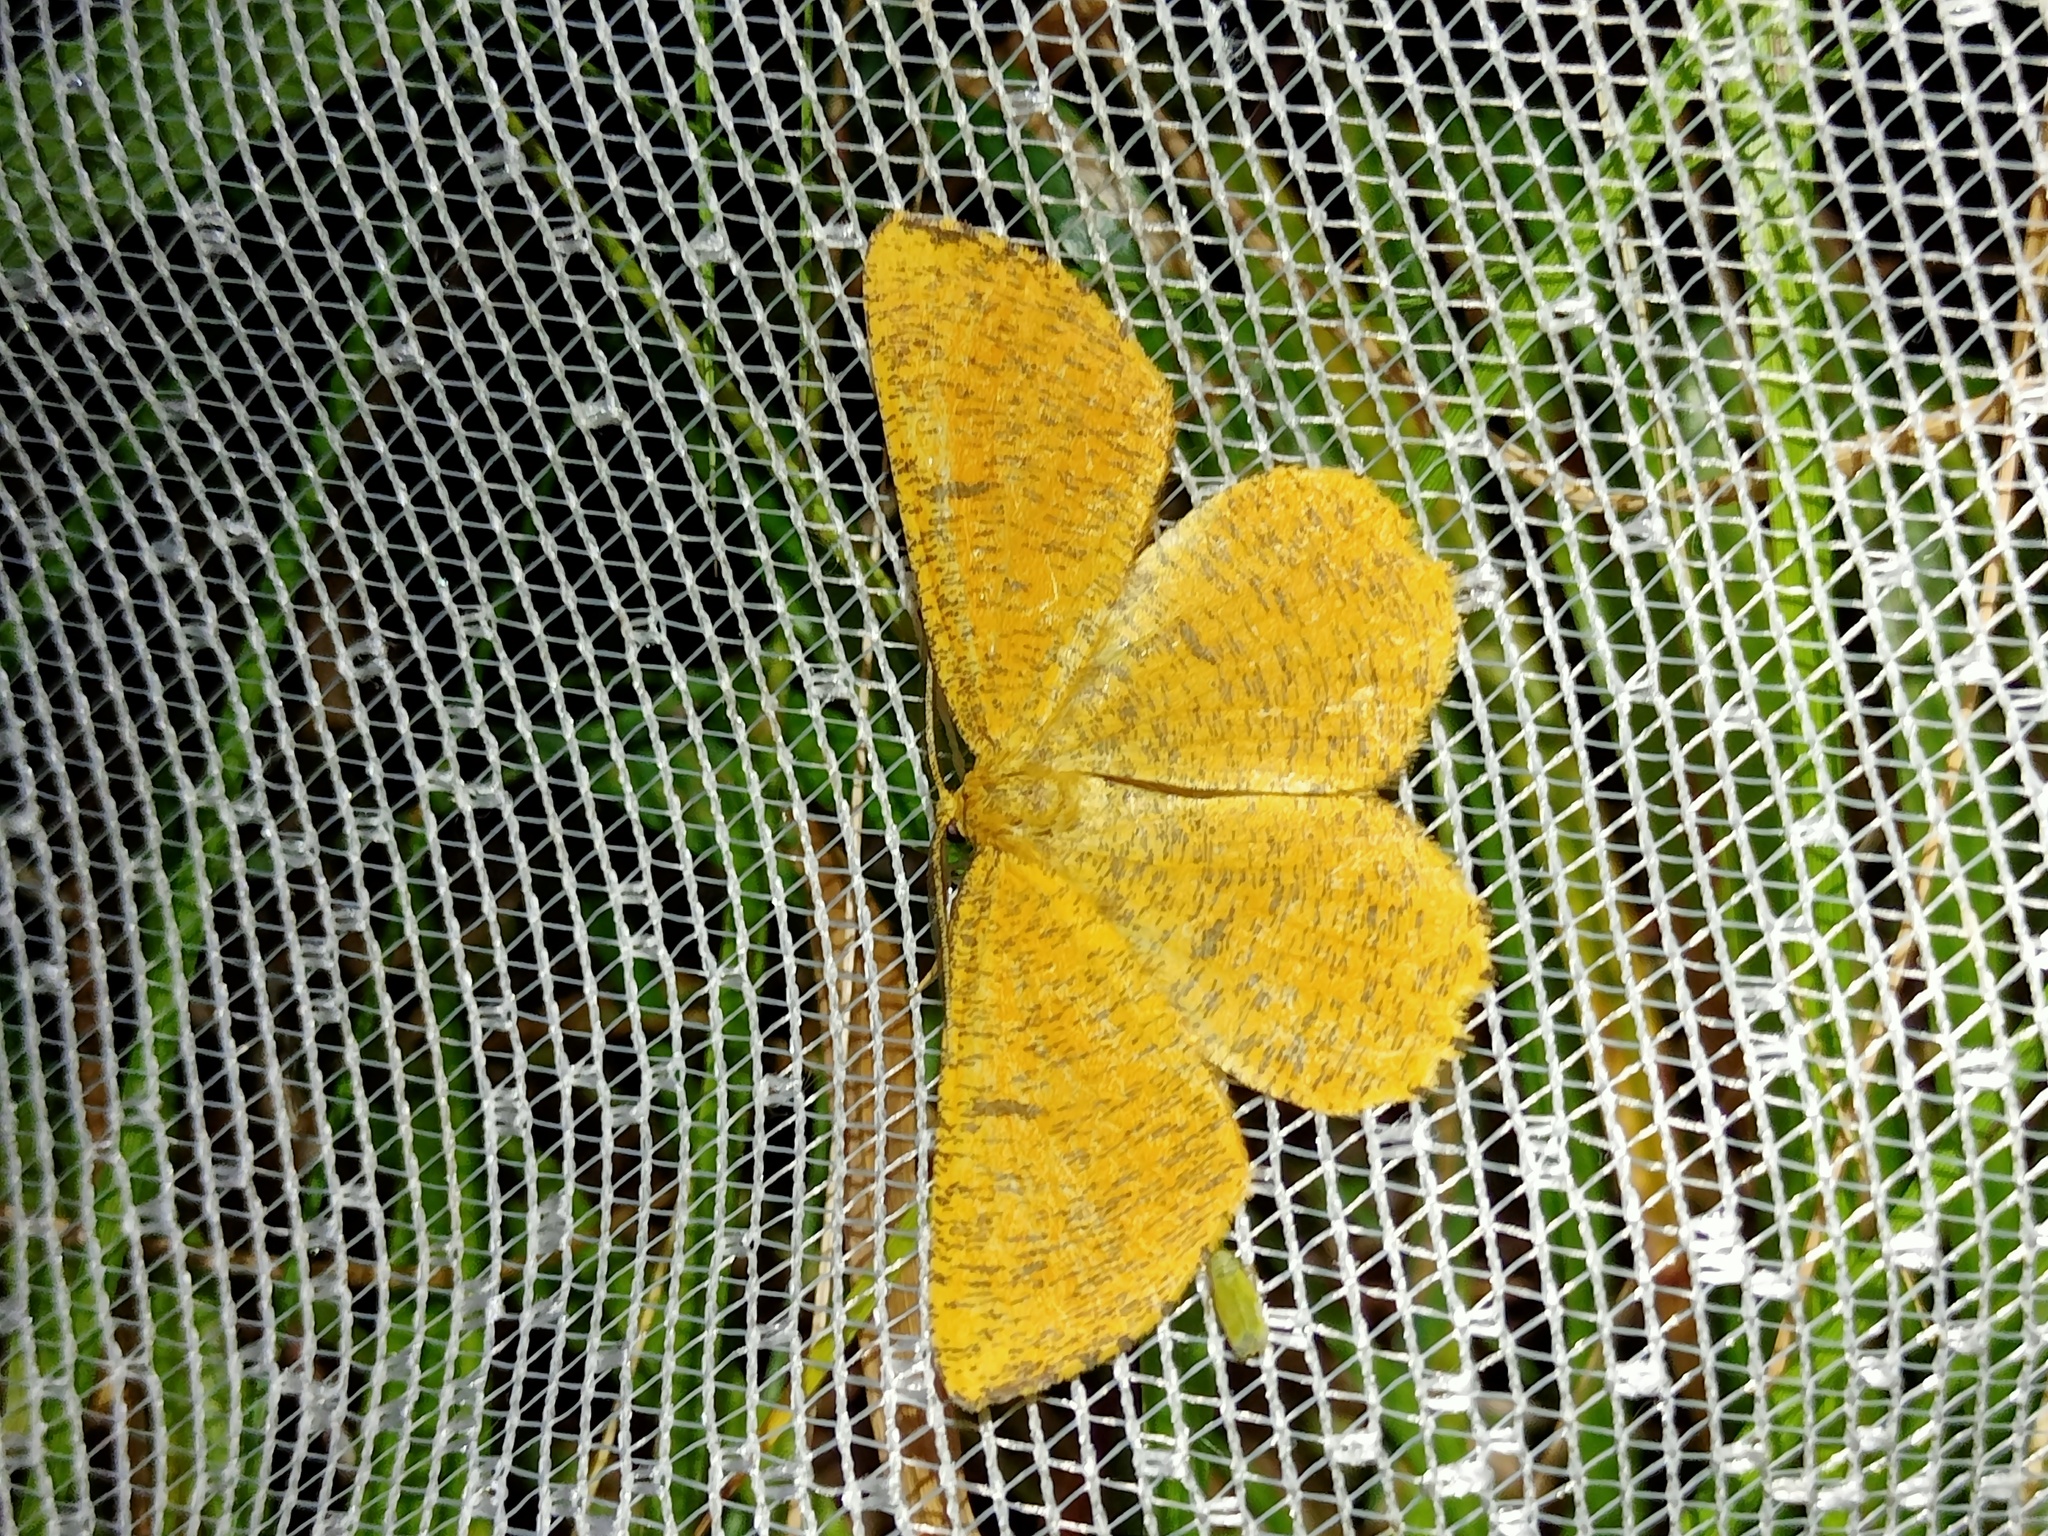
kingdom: Animalia
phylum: Arthropoda
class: Insecta
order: Lepidoptera
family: Geometridae
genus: Angerona
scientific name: Angerona prunaria
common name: Orange moth
